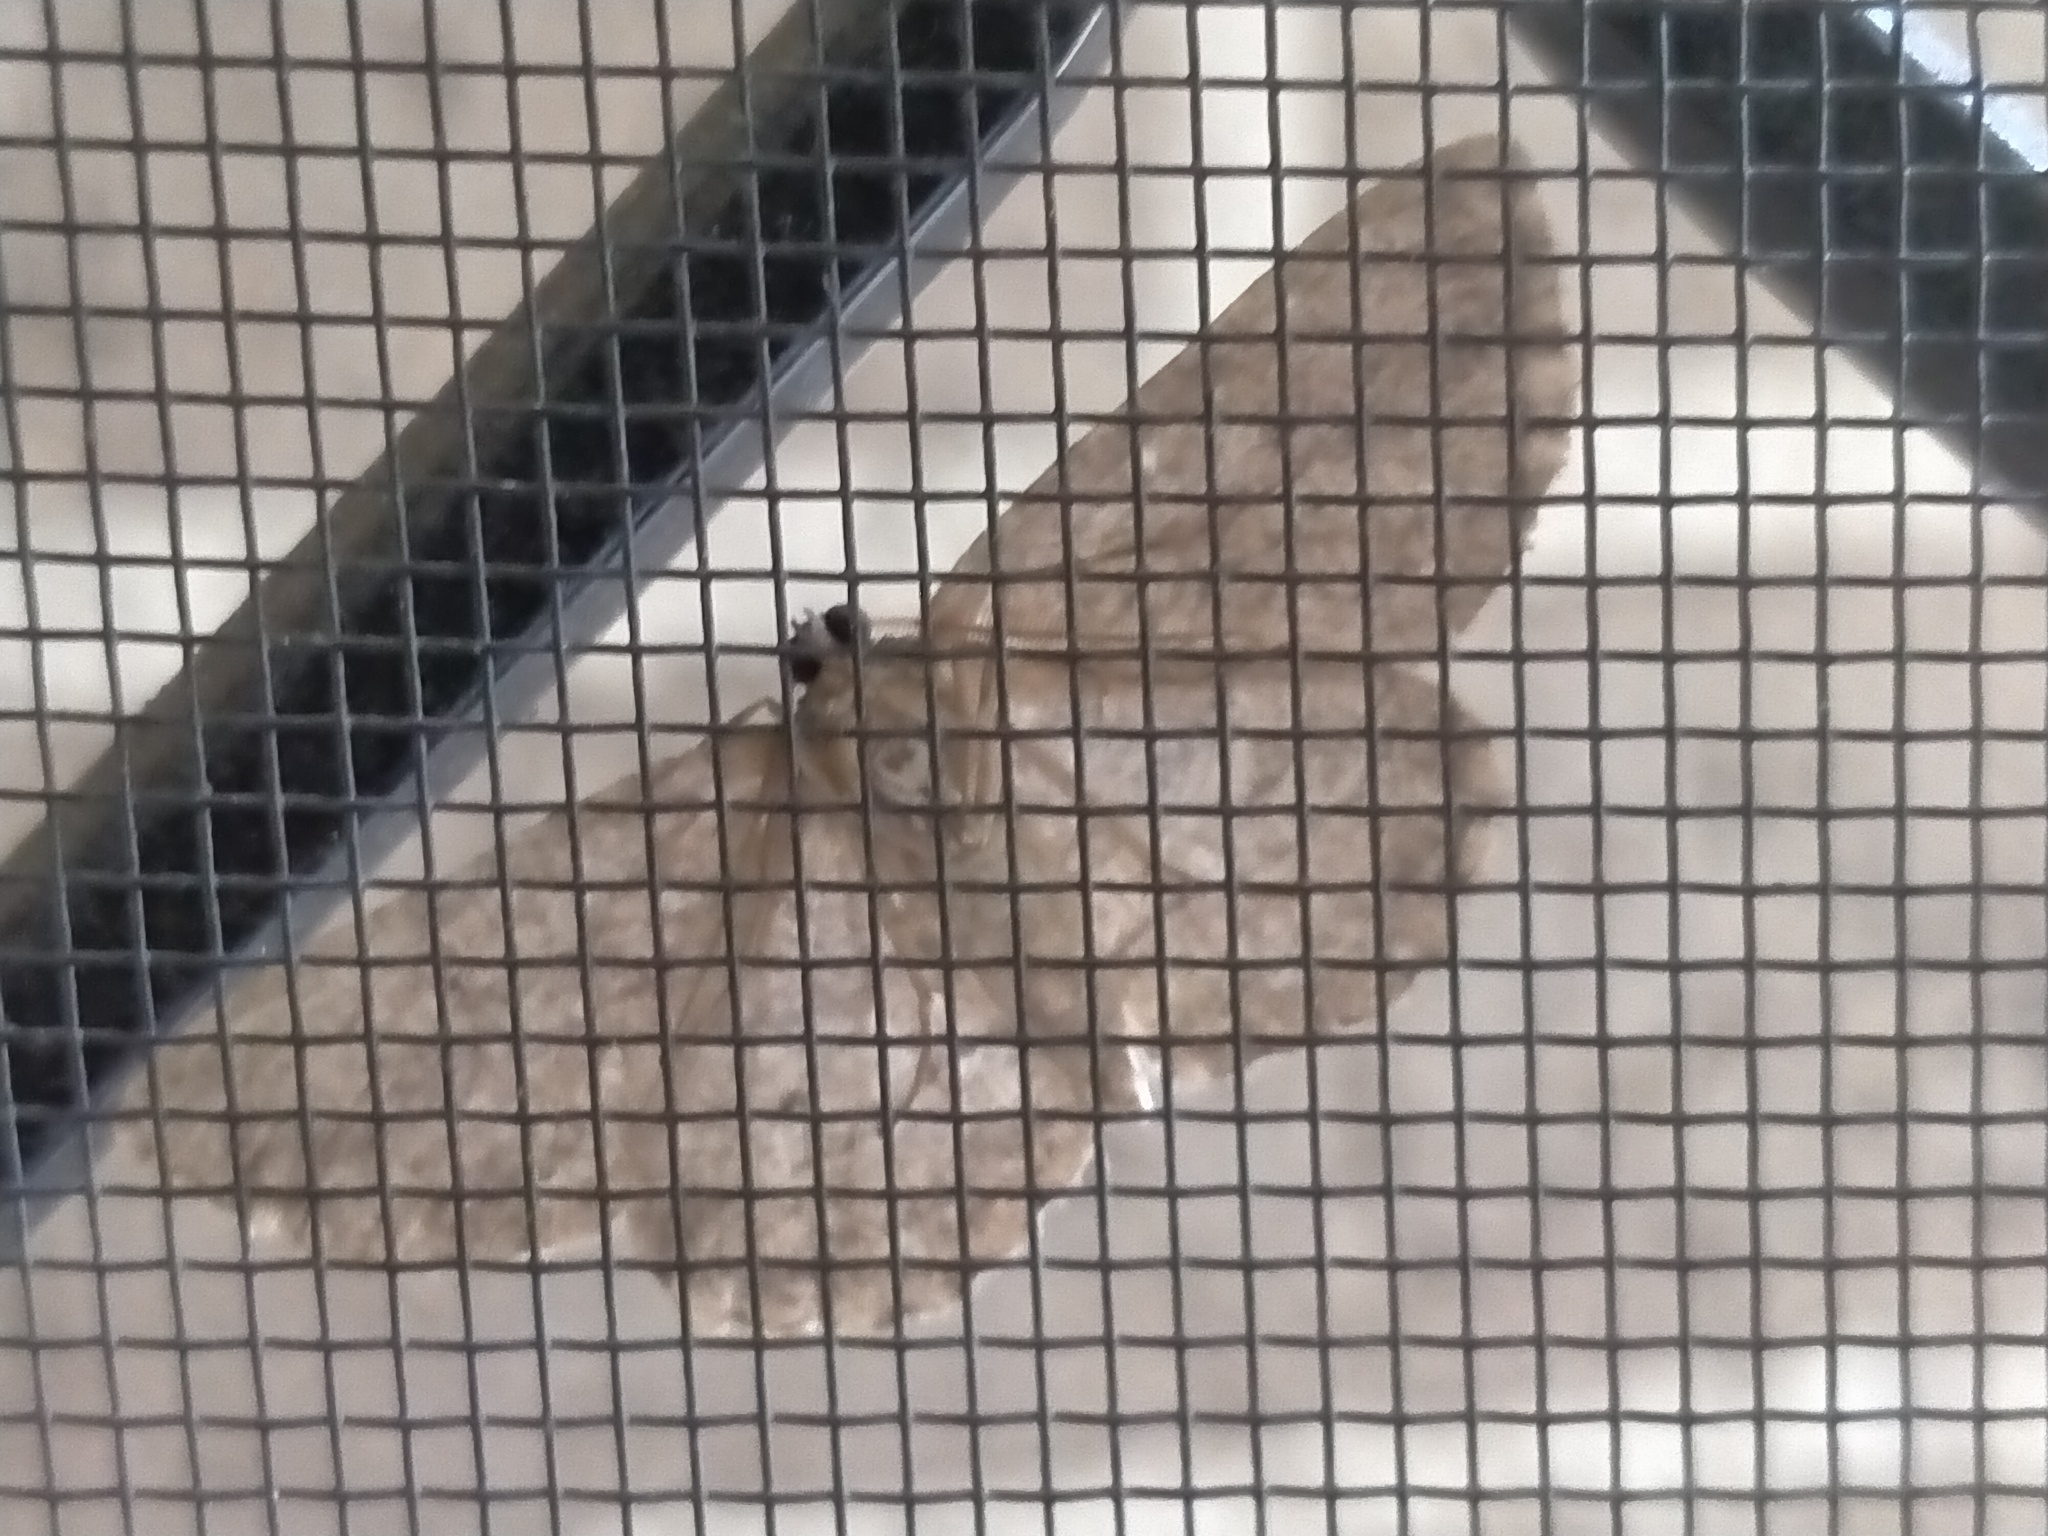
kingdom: Animalia
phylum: Arthropoda
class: Insecta
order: Lepidoptera
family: Geometridae
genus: Ectropis
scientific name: Ectropis excursaria
